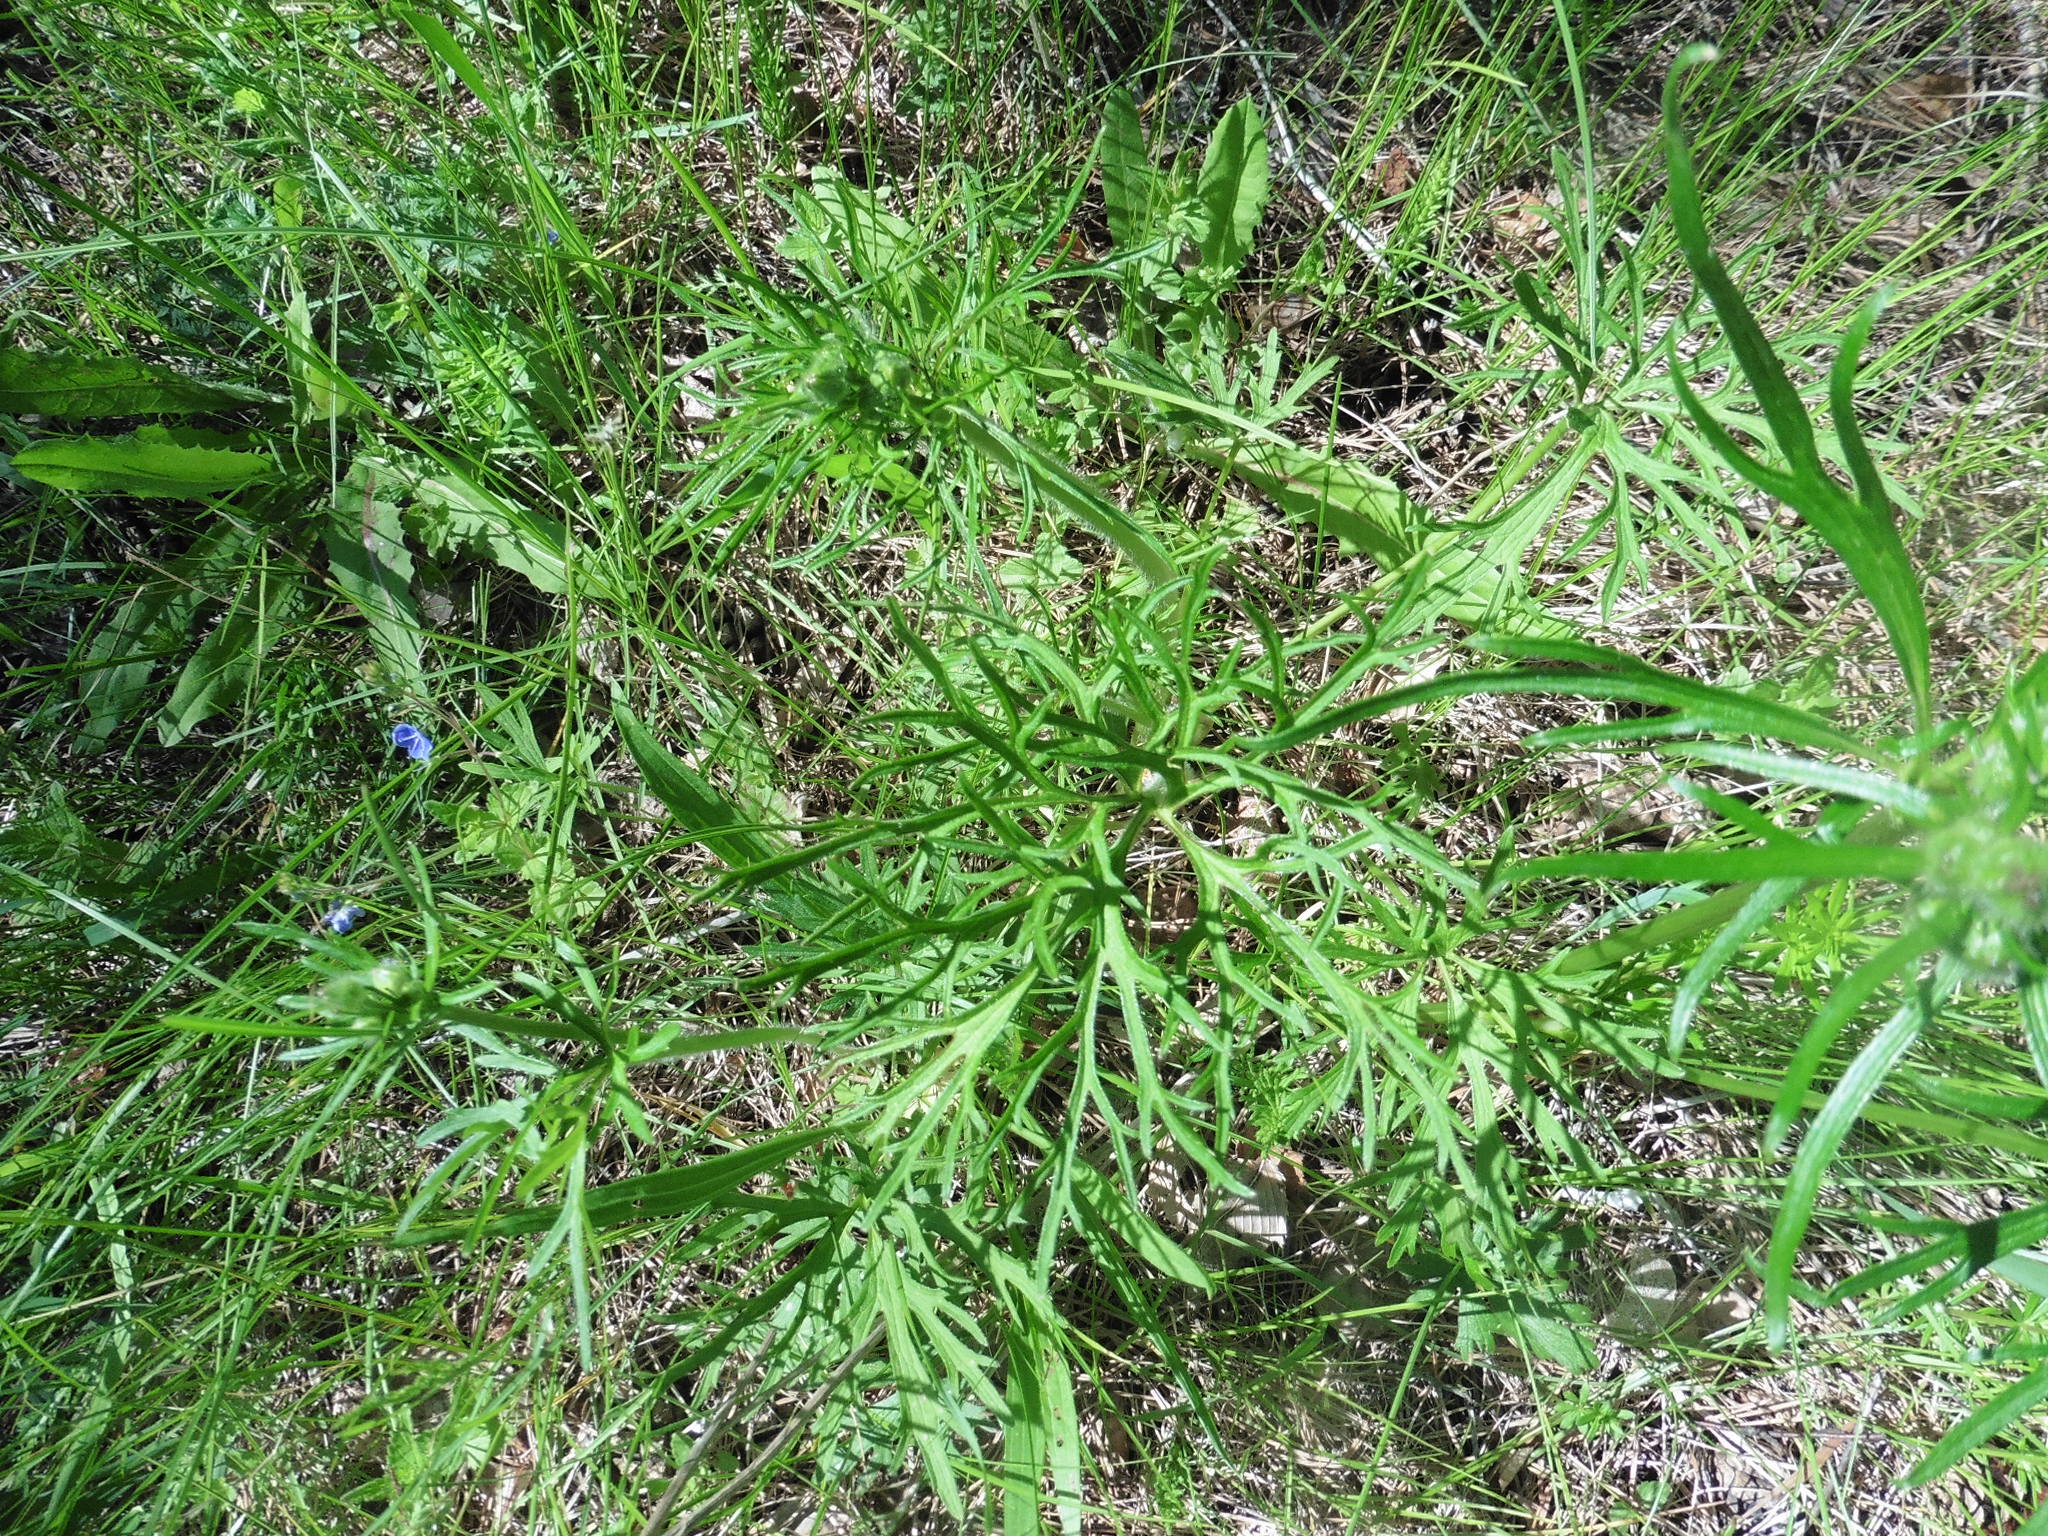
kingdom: Plantae
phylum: Tracheophyta
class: Magnoliopsida
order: Ranunculales
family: Ranunculaceae
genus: Ranunculus
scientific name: Ranunculus polyanthemos
